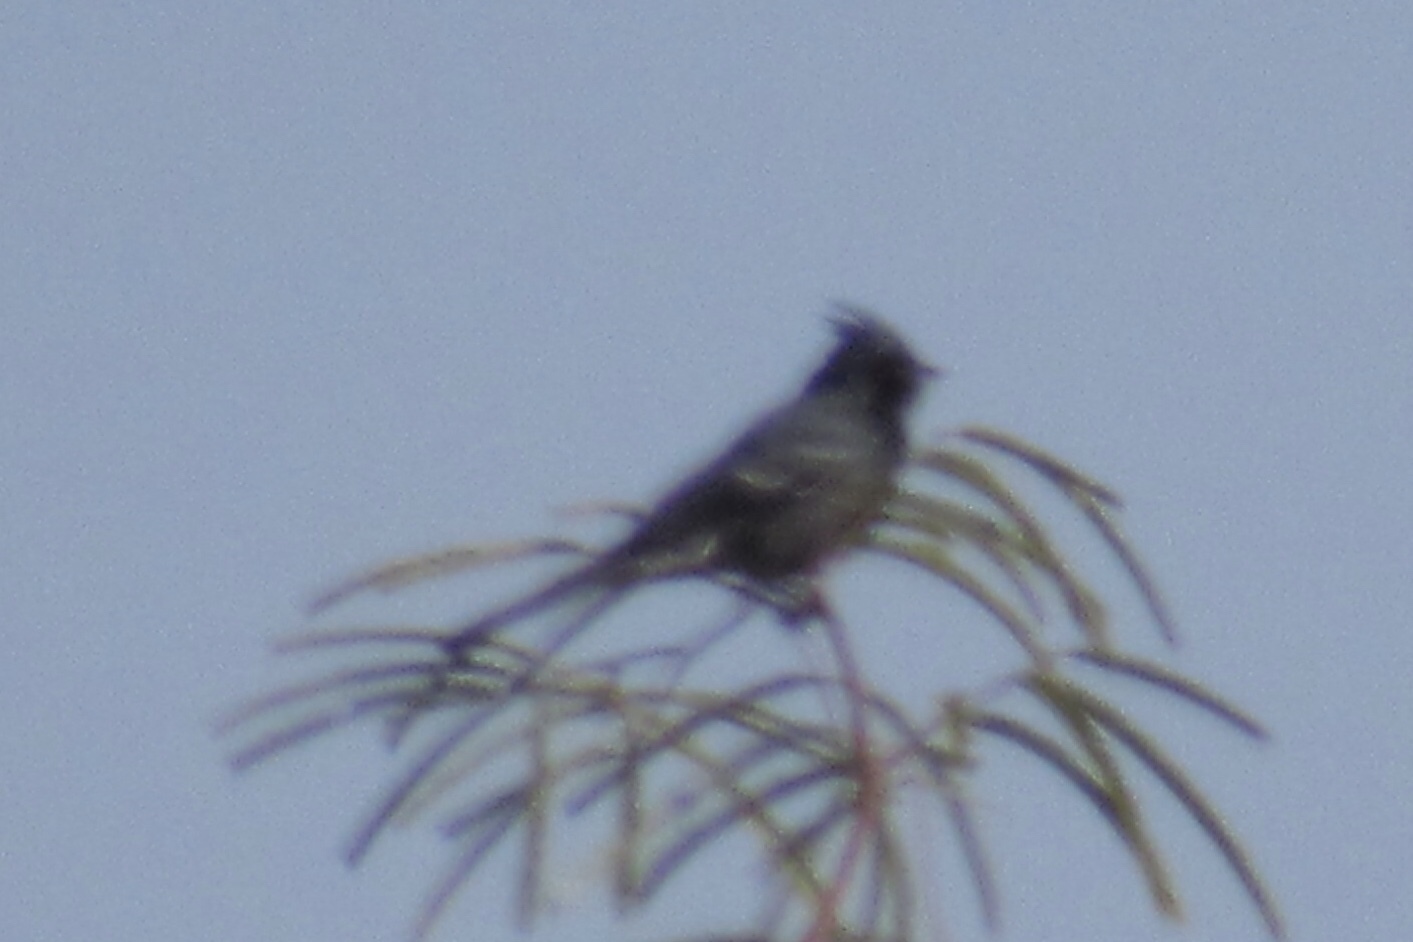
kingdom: Animalia
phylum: Chordata
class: Aves
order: Passeriformes
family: Ptilogonatidae
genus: Phainopepla
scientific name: Phainopepla nitens
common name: Phainopepla
